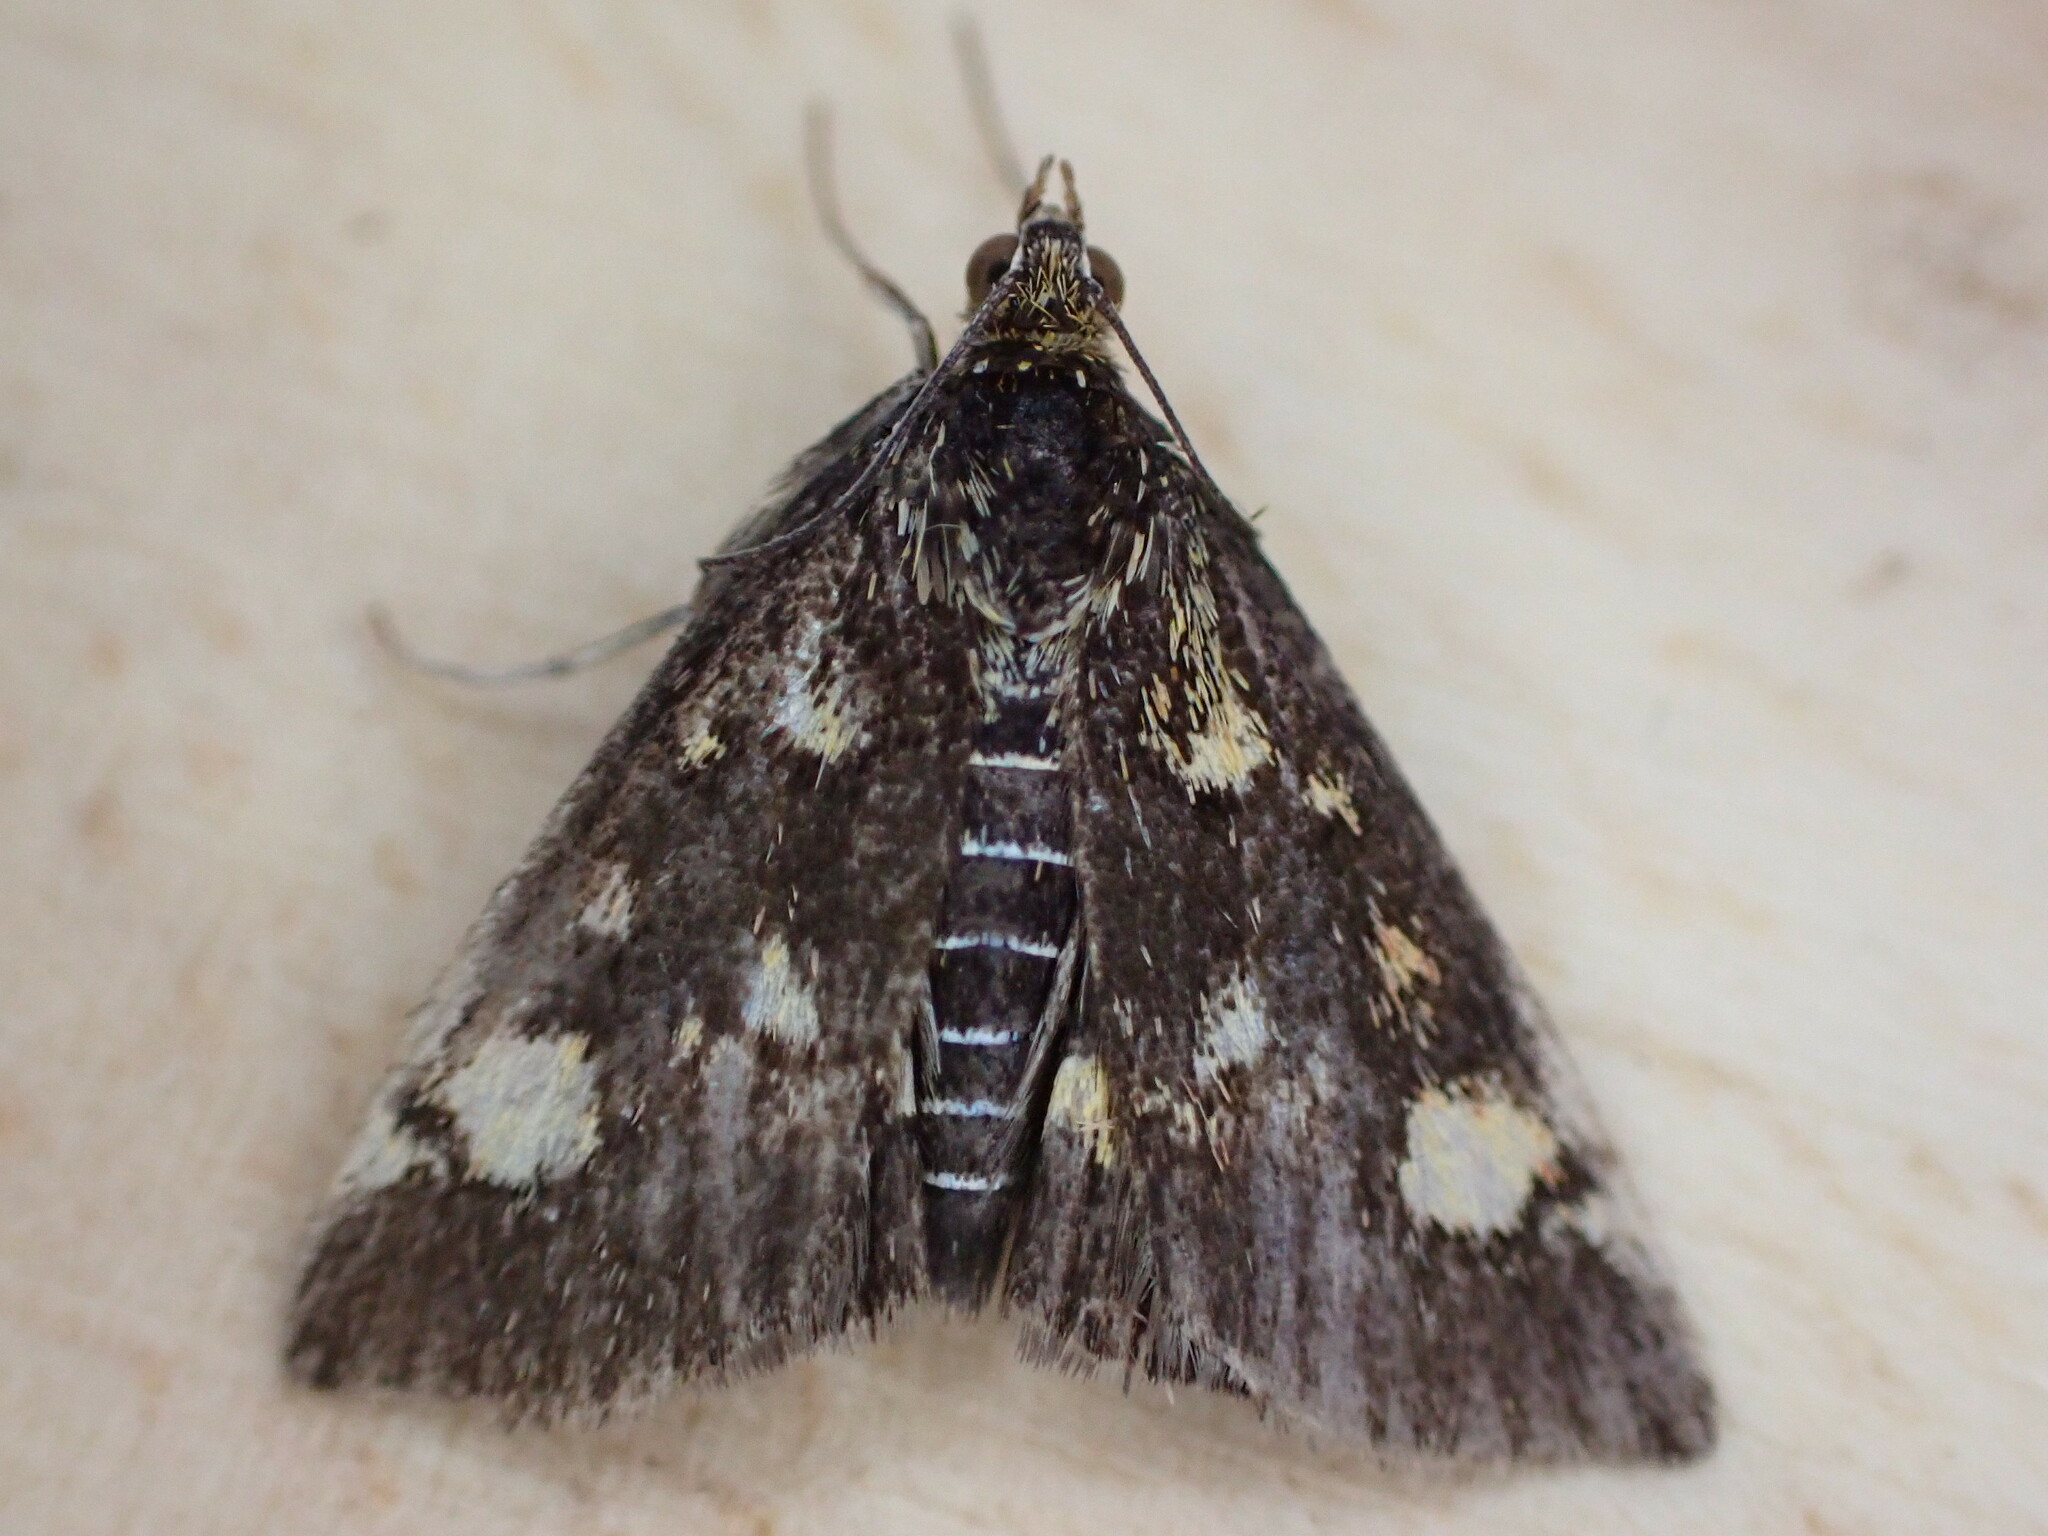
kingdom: Animalia
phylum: Arthropoda
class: Insecta
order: Lepidoptera
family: Crambidae
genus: Pyrausta
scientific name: Pyrausta aurata
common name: Small purple & gold
